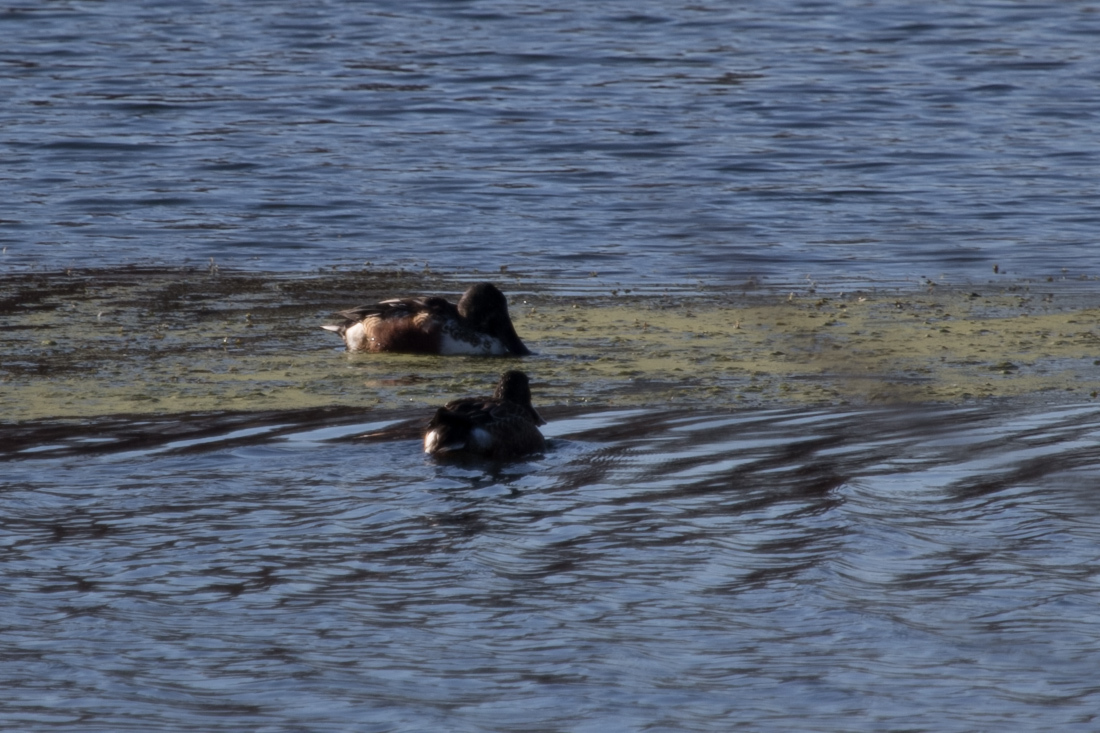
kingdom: Animalia
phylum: Chordata
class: Aves
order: Anseriformes
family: Anatidae
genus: Spatula
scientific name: Spatula clypeata
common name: Northern shoveler
